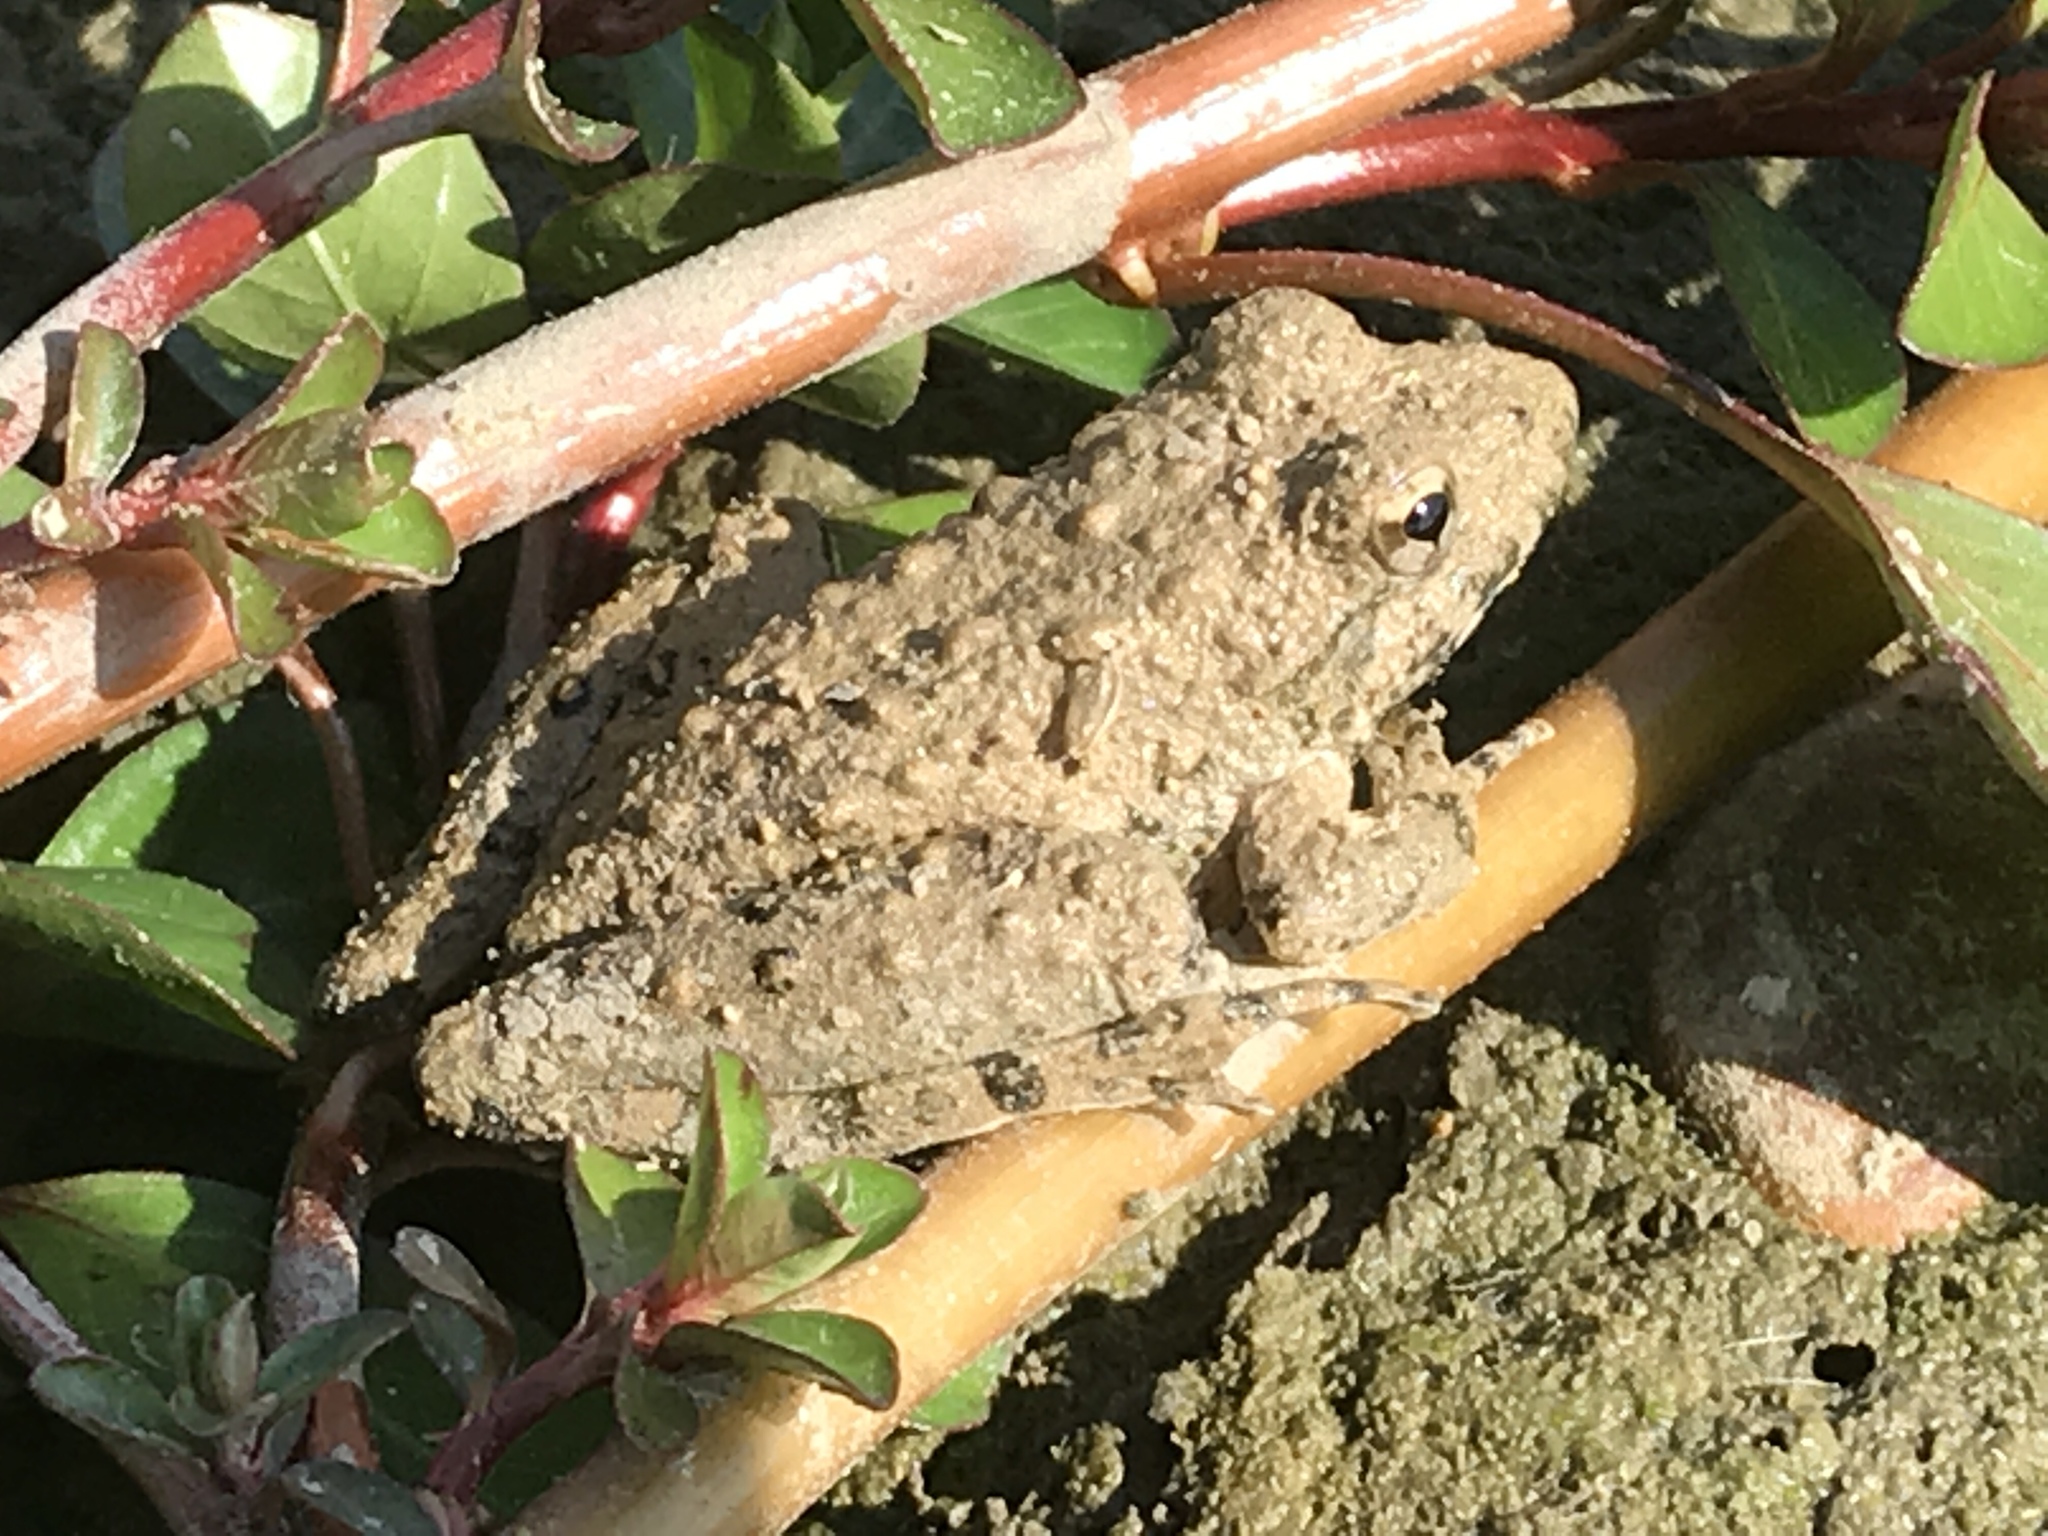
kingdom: Animalia
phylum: Chordata
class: Amphibia
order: Anura
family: Hylidae
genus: Acris
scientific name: Acris blanchardi
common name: Blanchard's cricket frog
